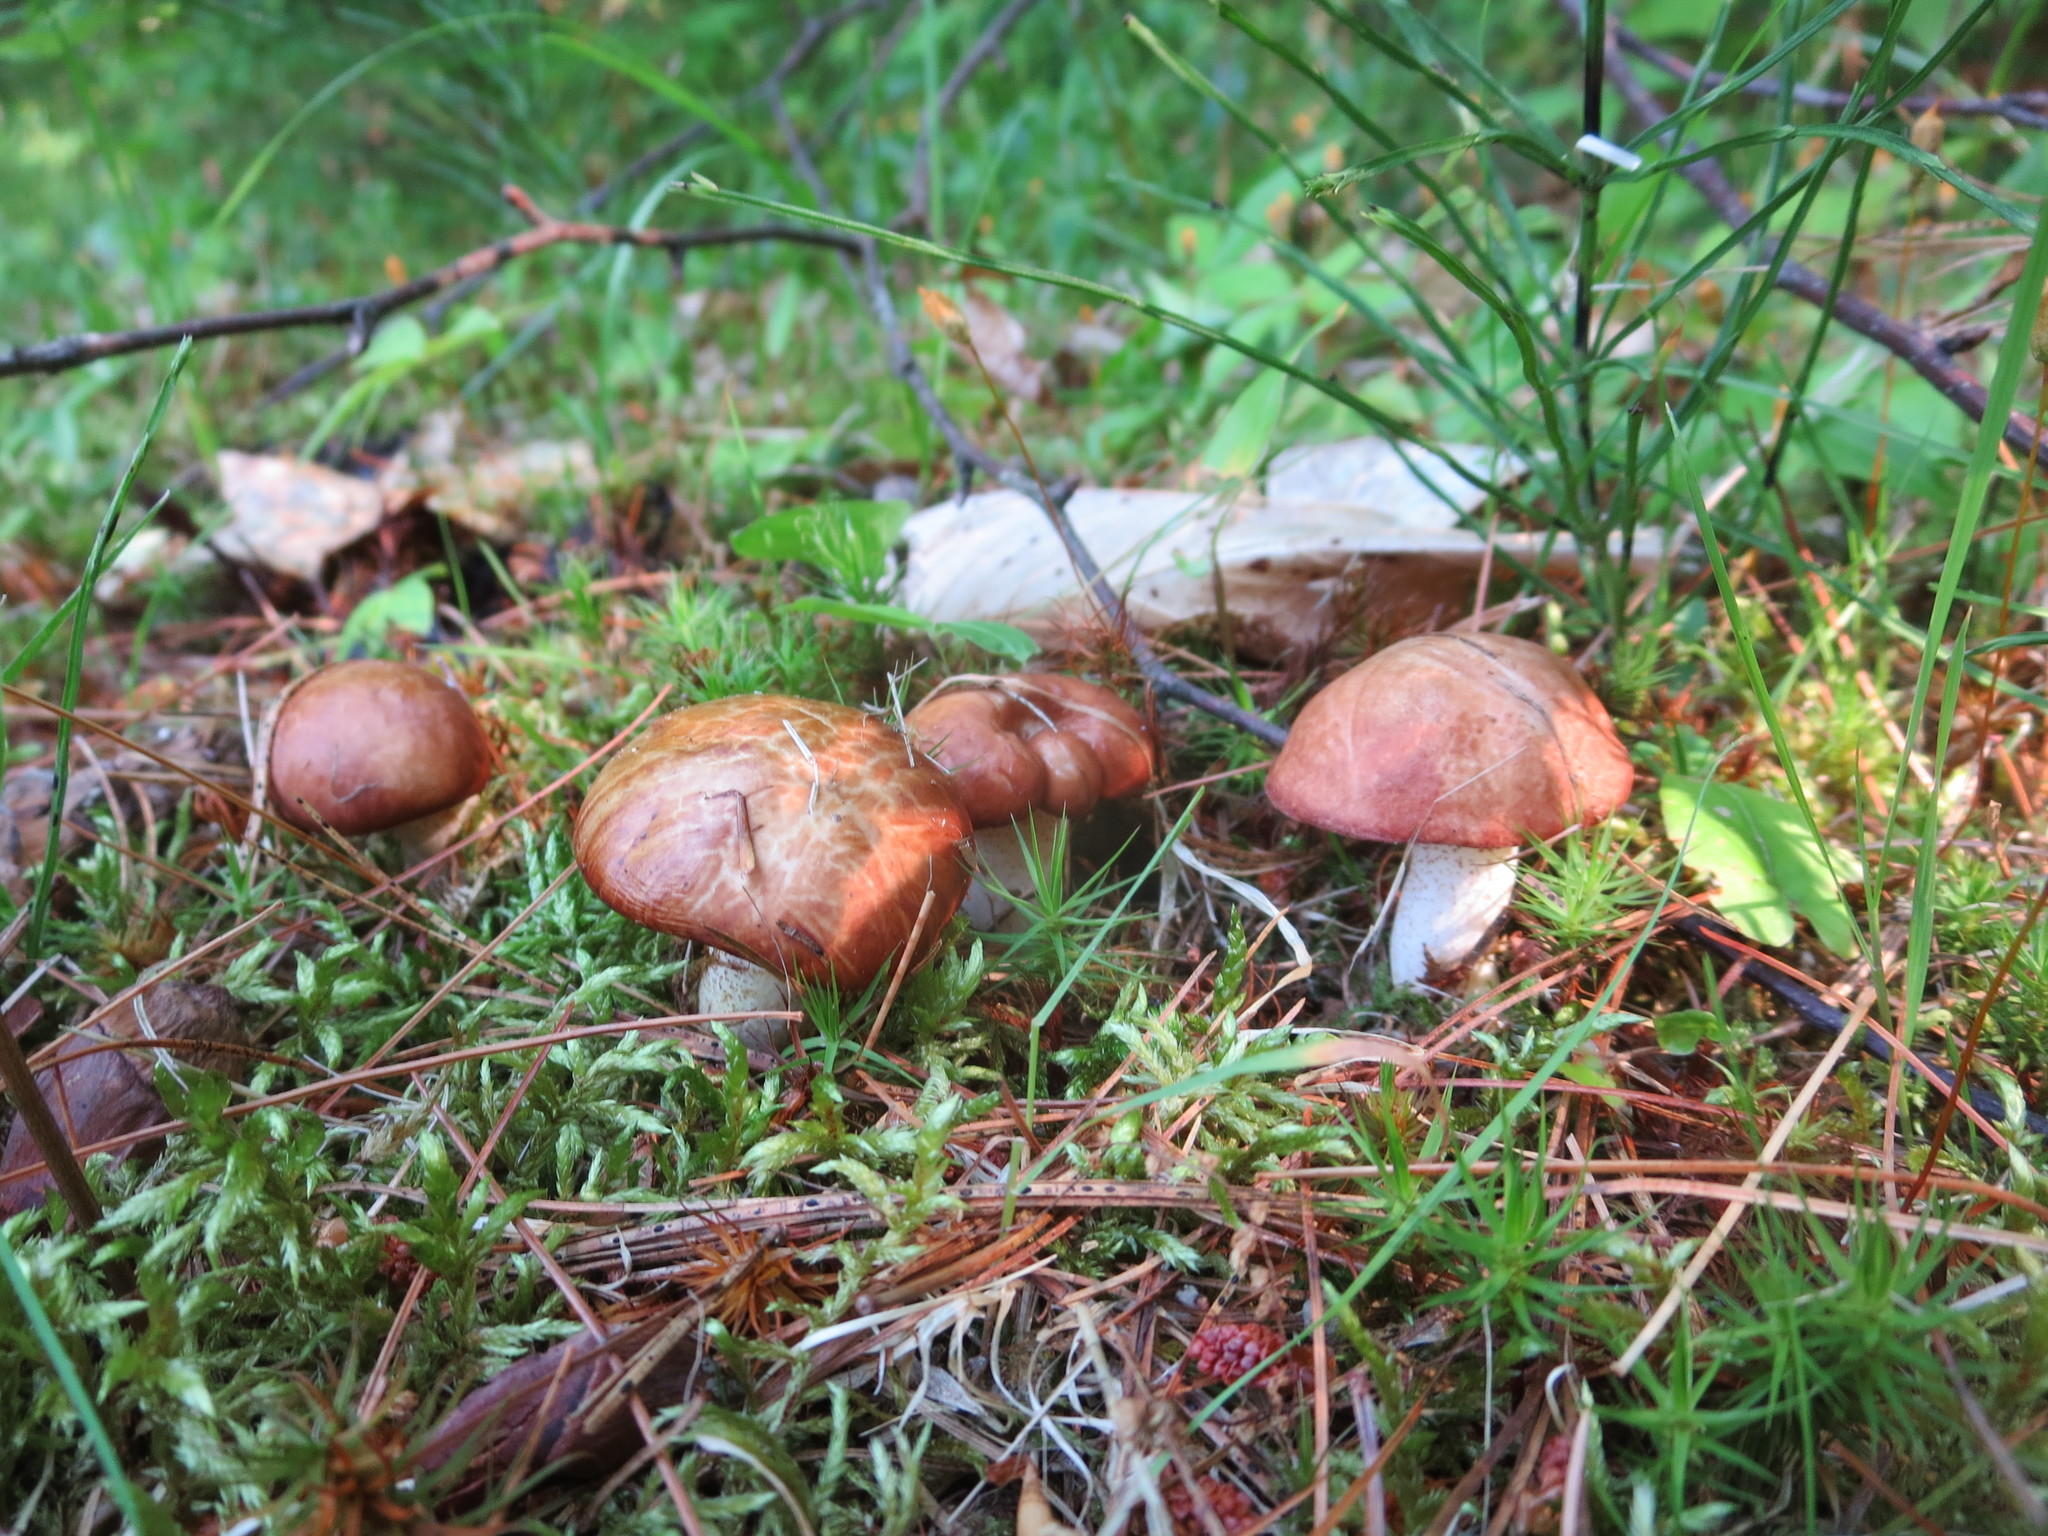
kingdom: Fungi
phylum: Basidiomycota
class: Agaricomycetes
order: Boletales
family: Suillaceae
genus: Fuscoboletinus
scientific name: Fuscoboletinus weaverae
